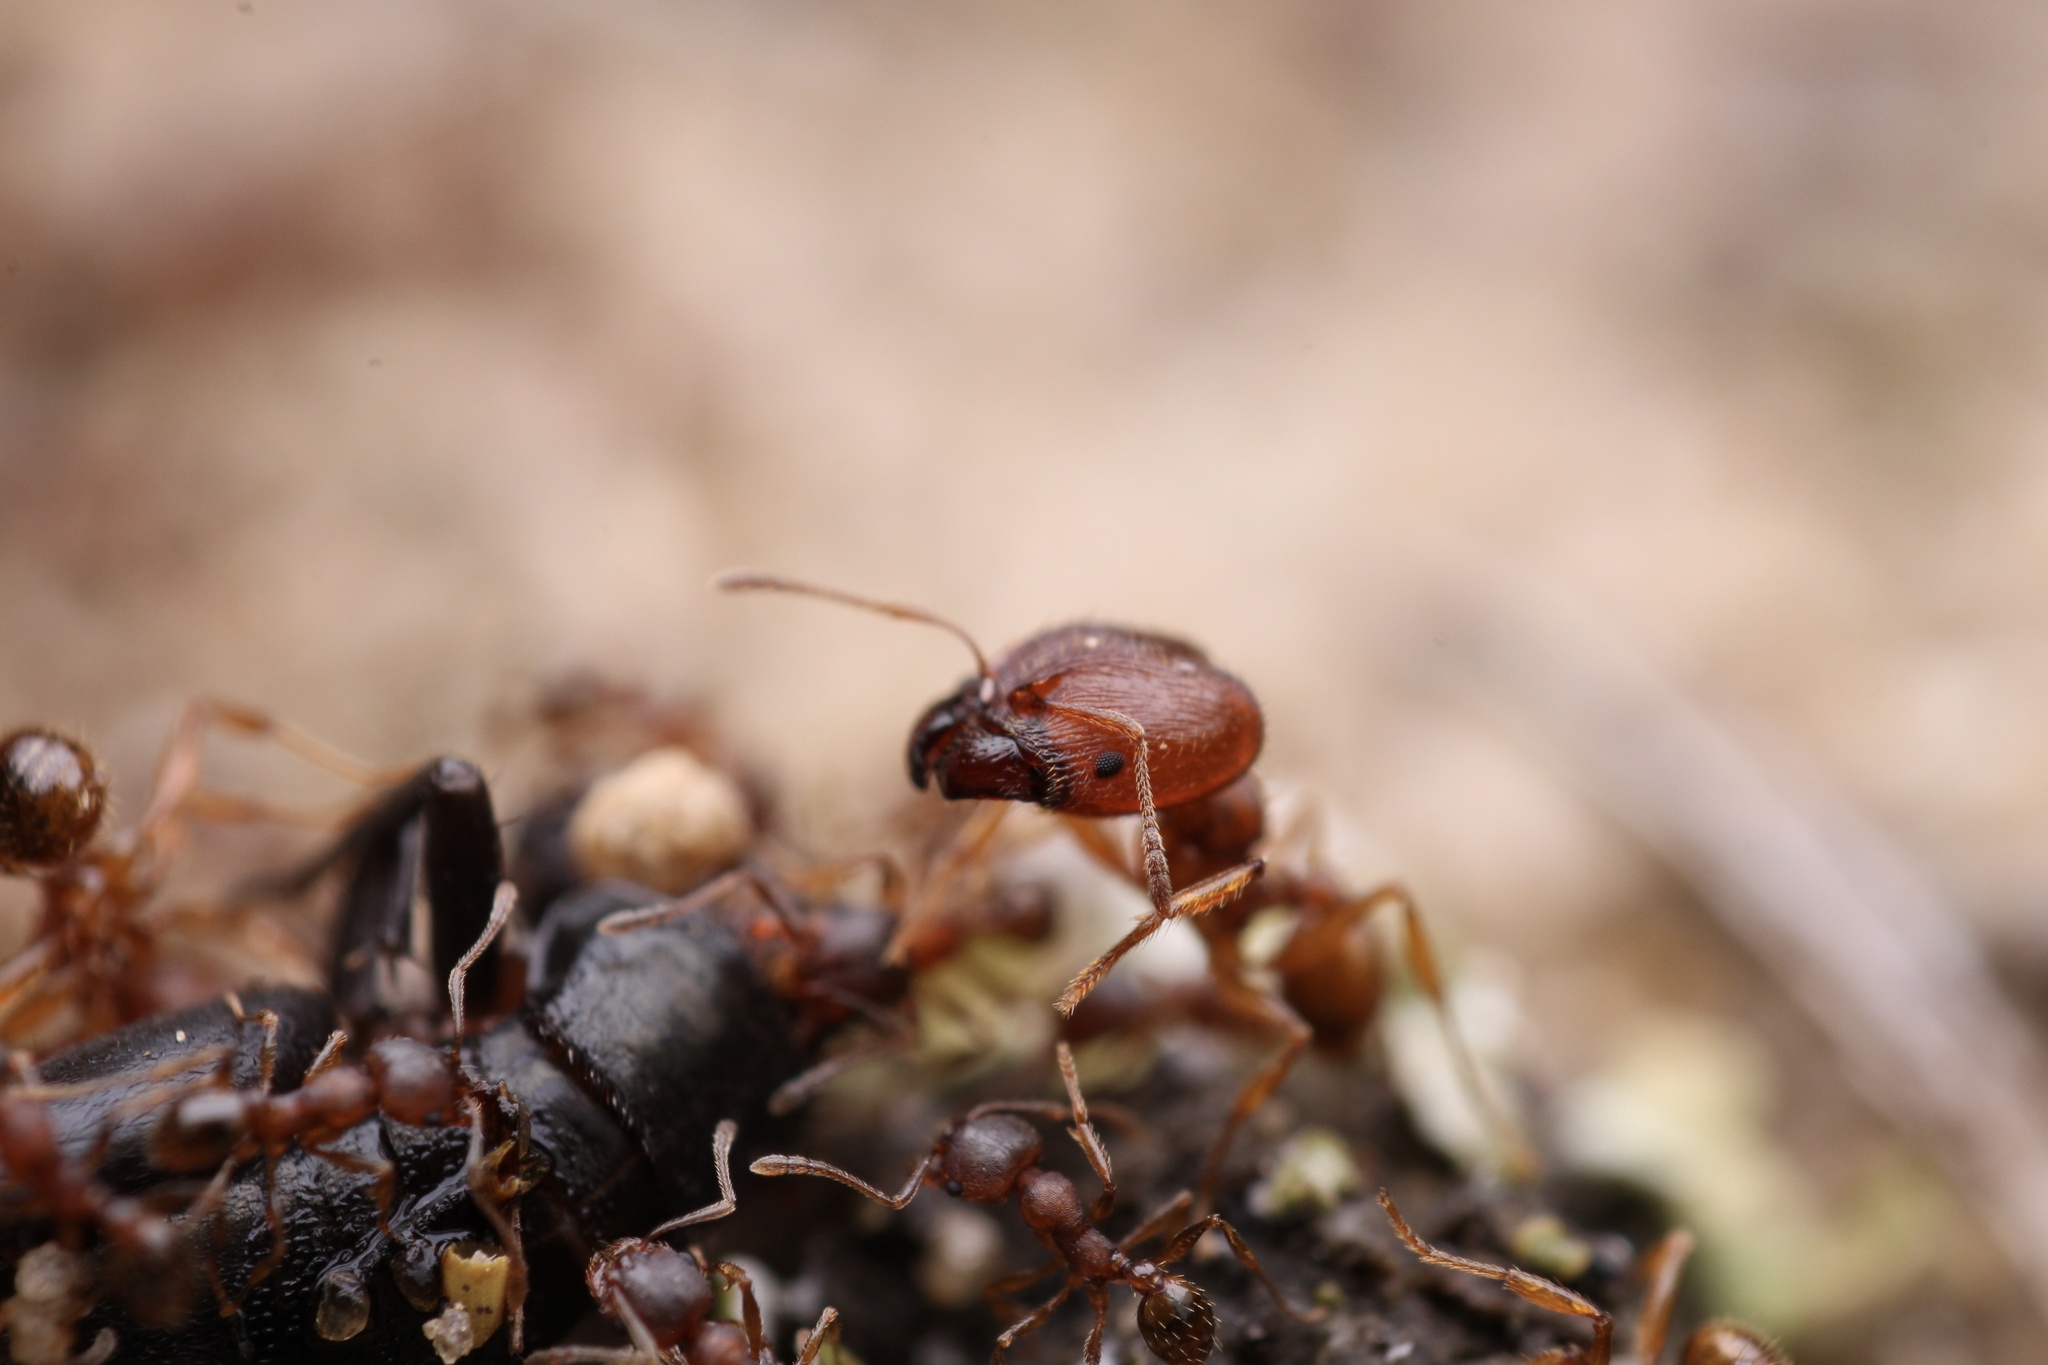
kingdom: Animalia
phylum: Arthropoda
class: Insecta
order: Hymenoptera
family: Formicidae
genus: Pheidole
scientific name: Pheidole pilifera
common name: Hairy big-headed ant
